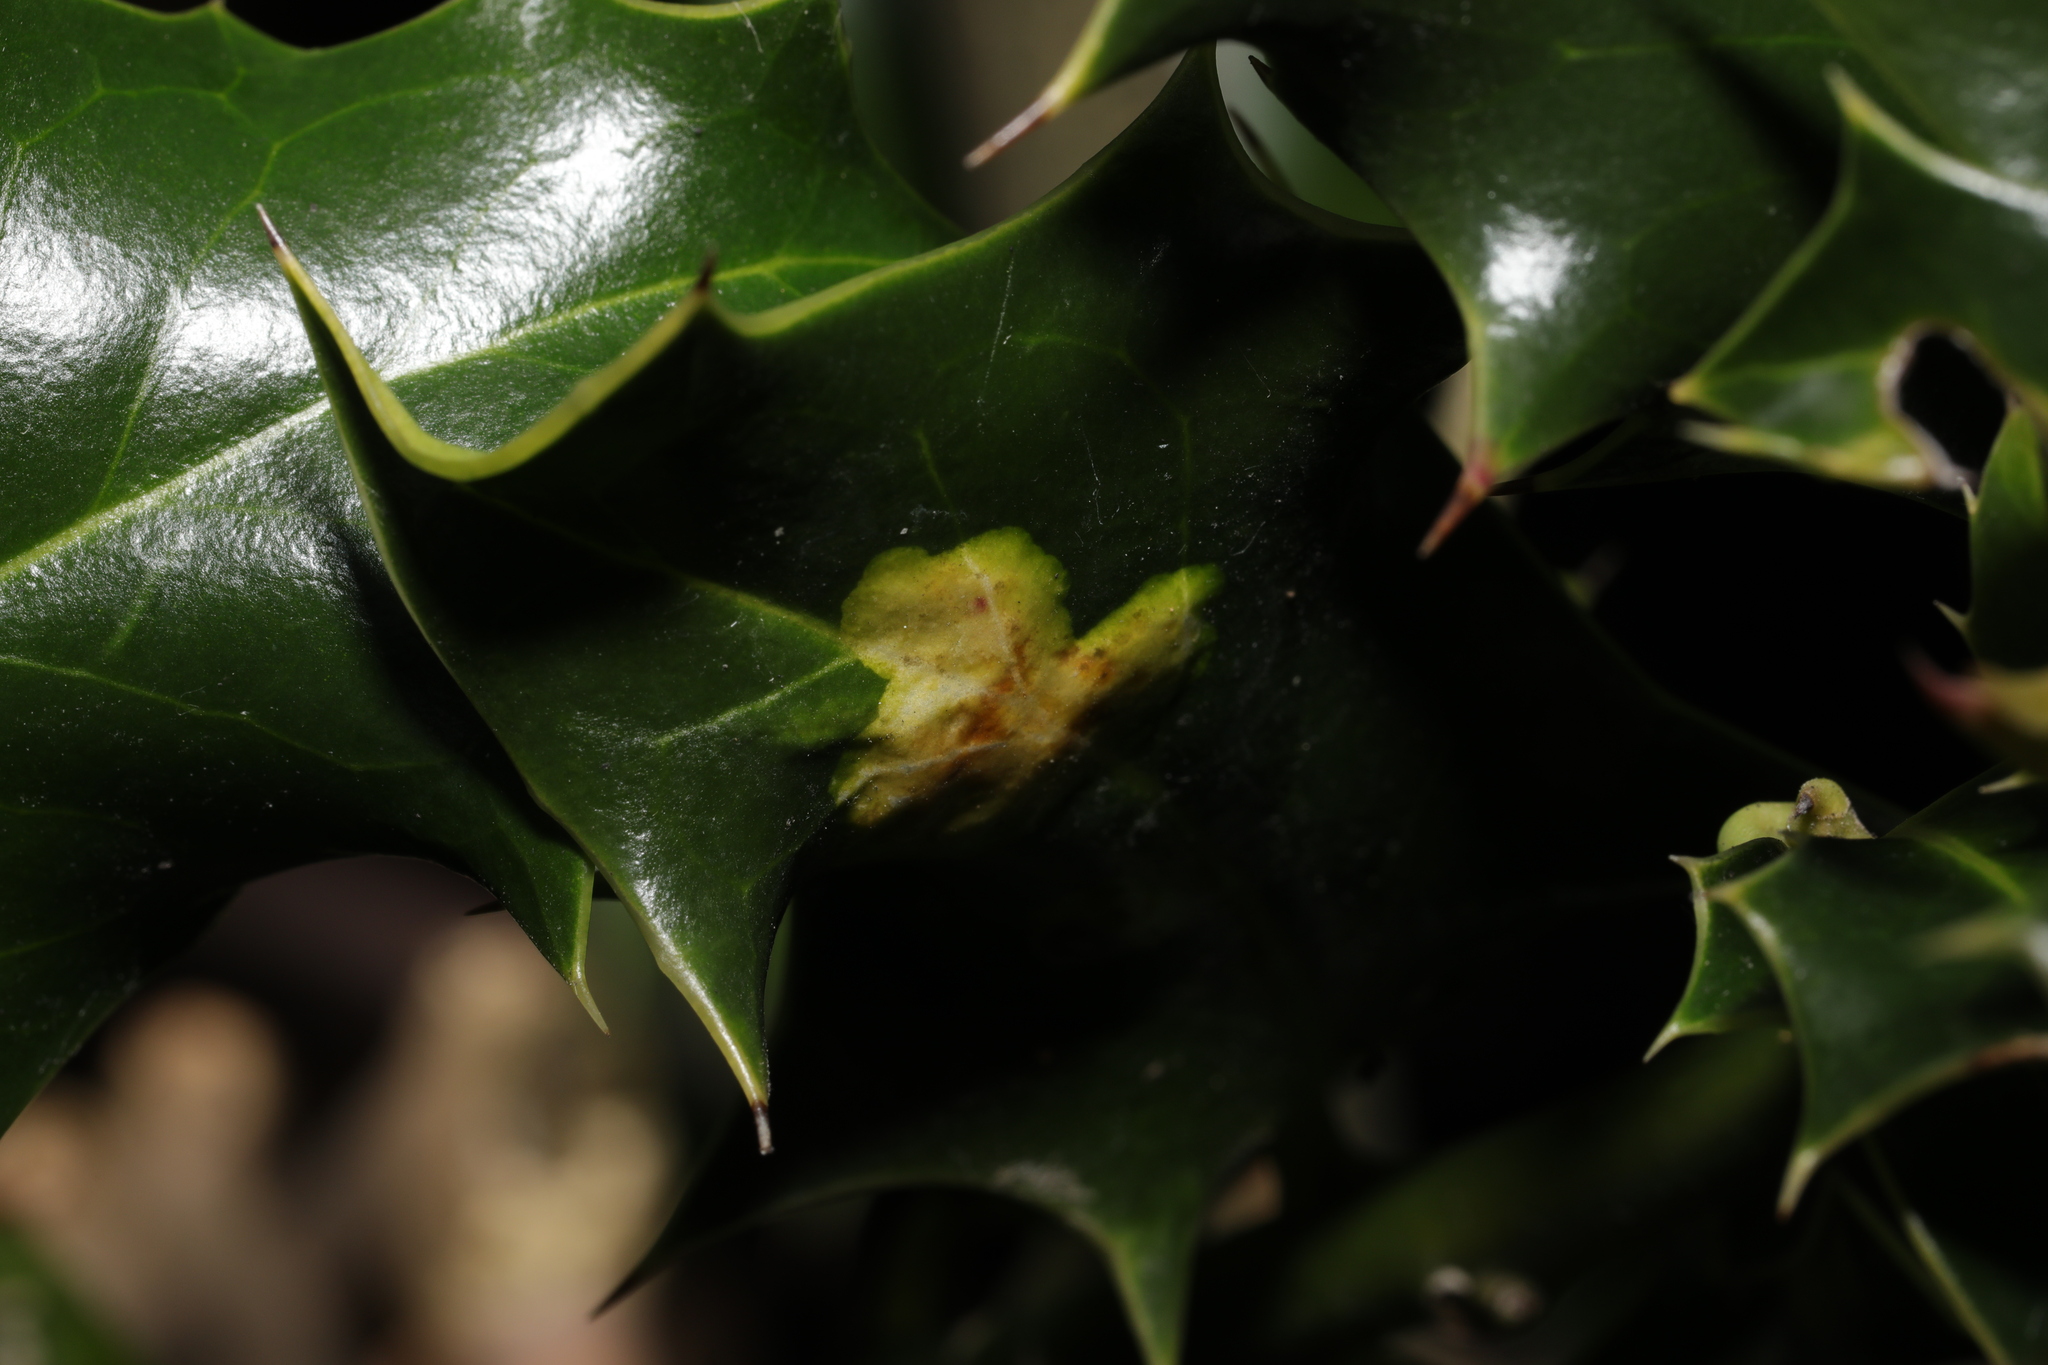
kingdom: Animalia
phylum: Arthropoda
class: Insecta
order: Diptera
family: Agromyzidae
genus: Phytomyza
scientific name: Phytomyza ilicis
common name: Holly leafminer
